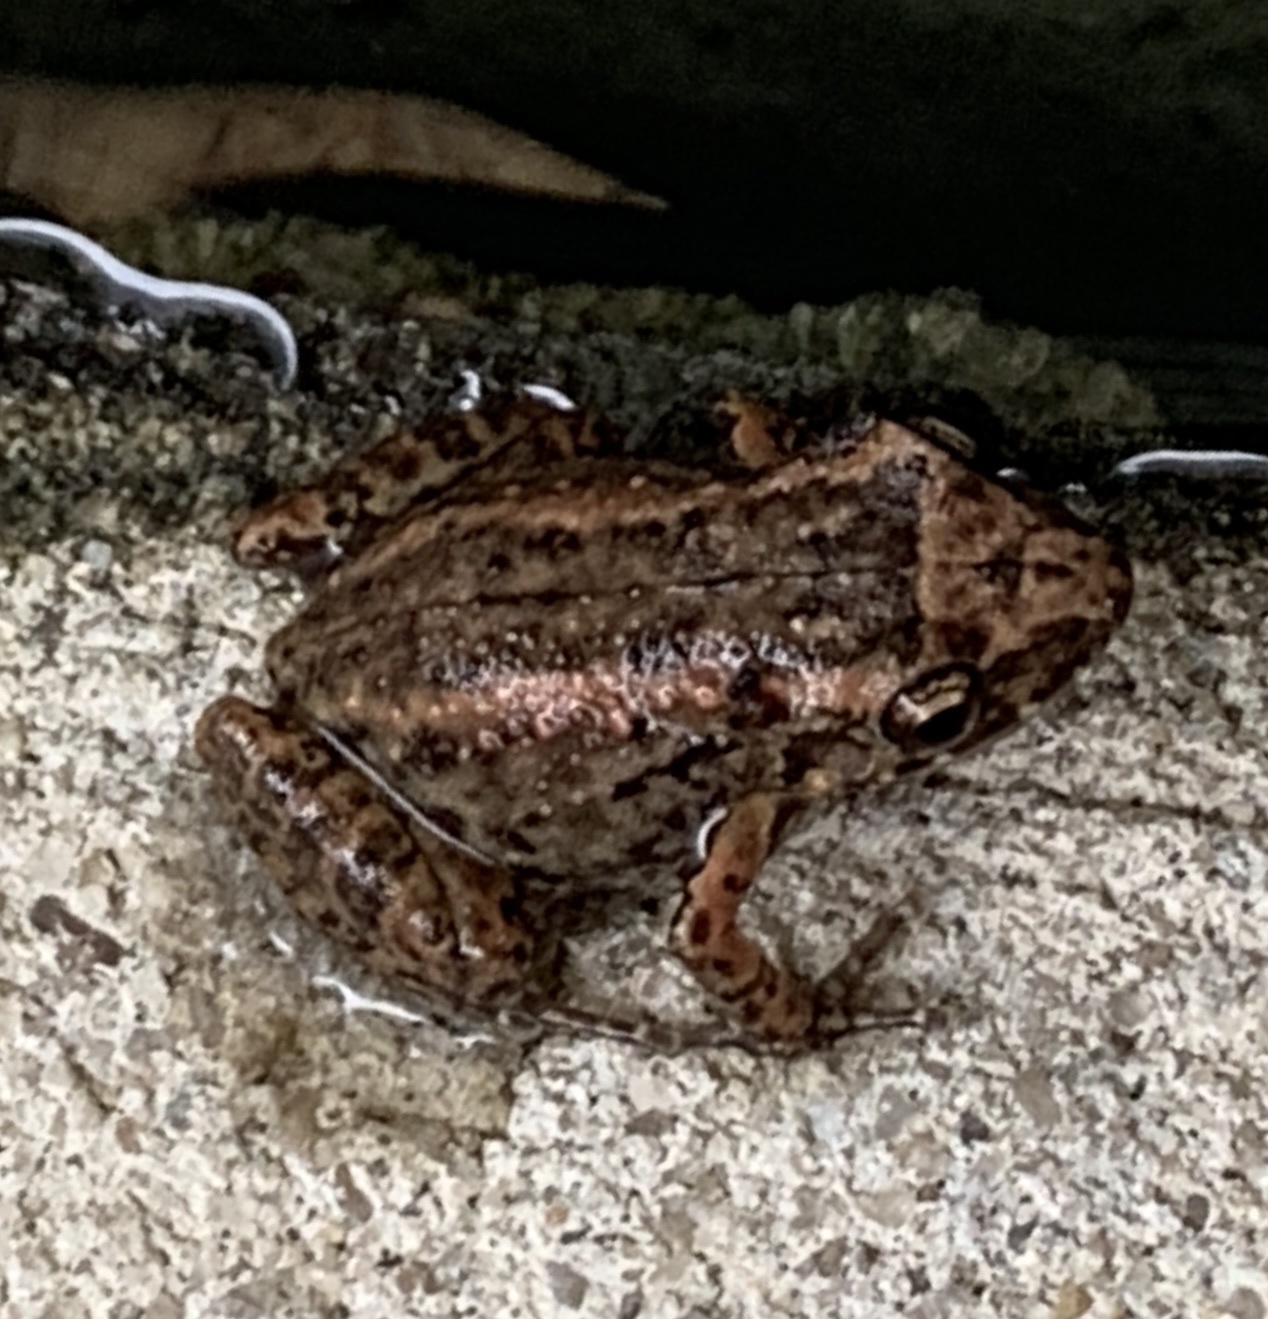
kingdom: Animalia
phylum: Chordata
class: Amphibia
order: Anura
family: Eleutherodactylidae
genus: Eleutherodactylus
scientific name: Eleutherodactylus planirostris
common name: Greenhouse frog
